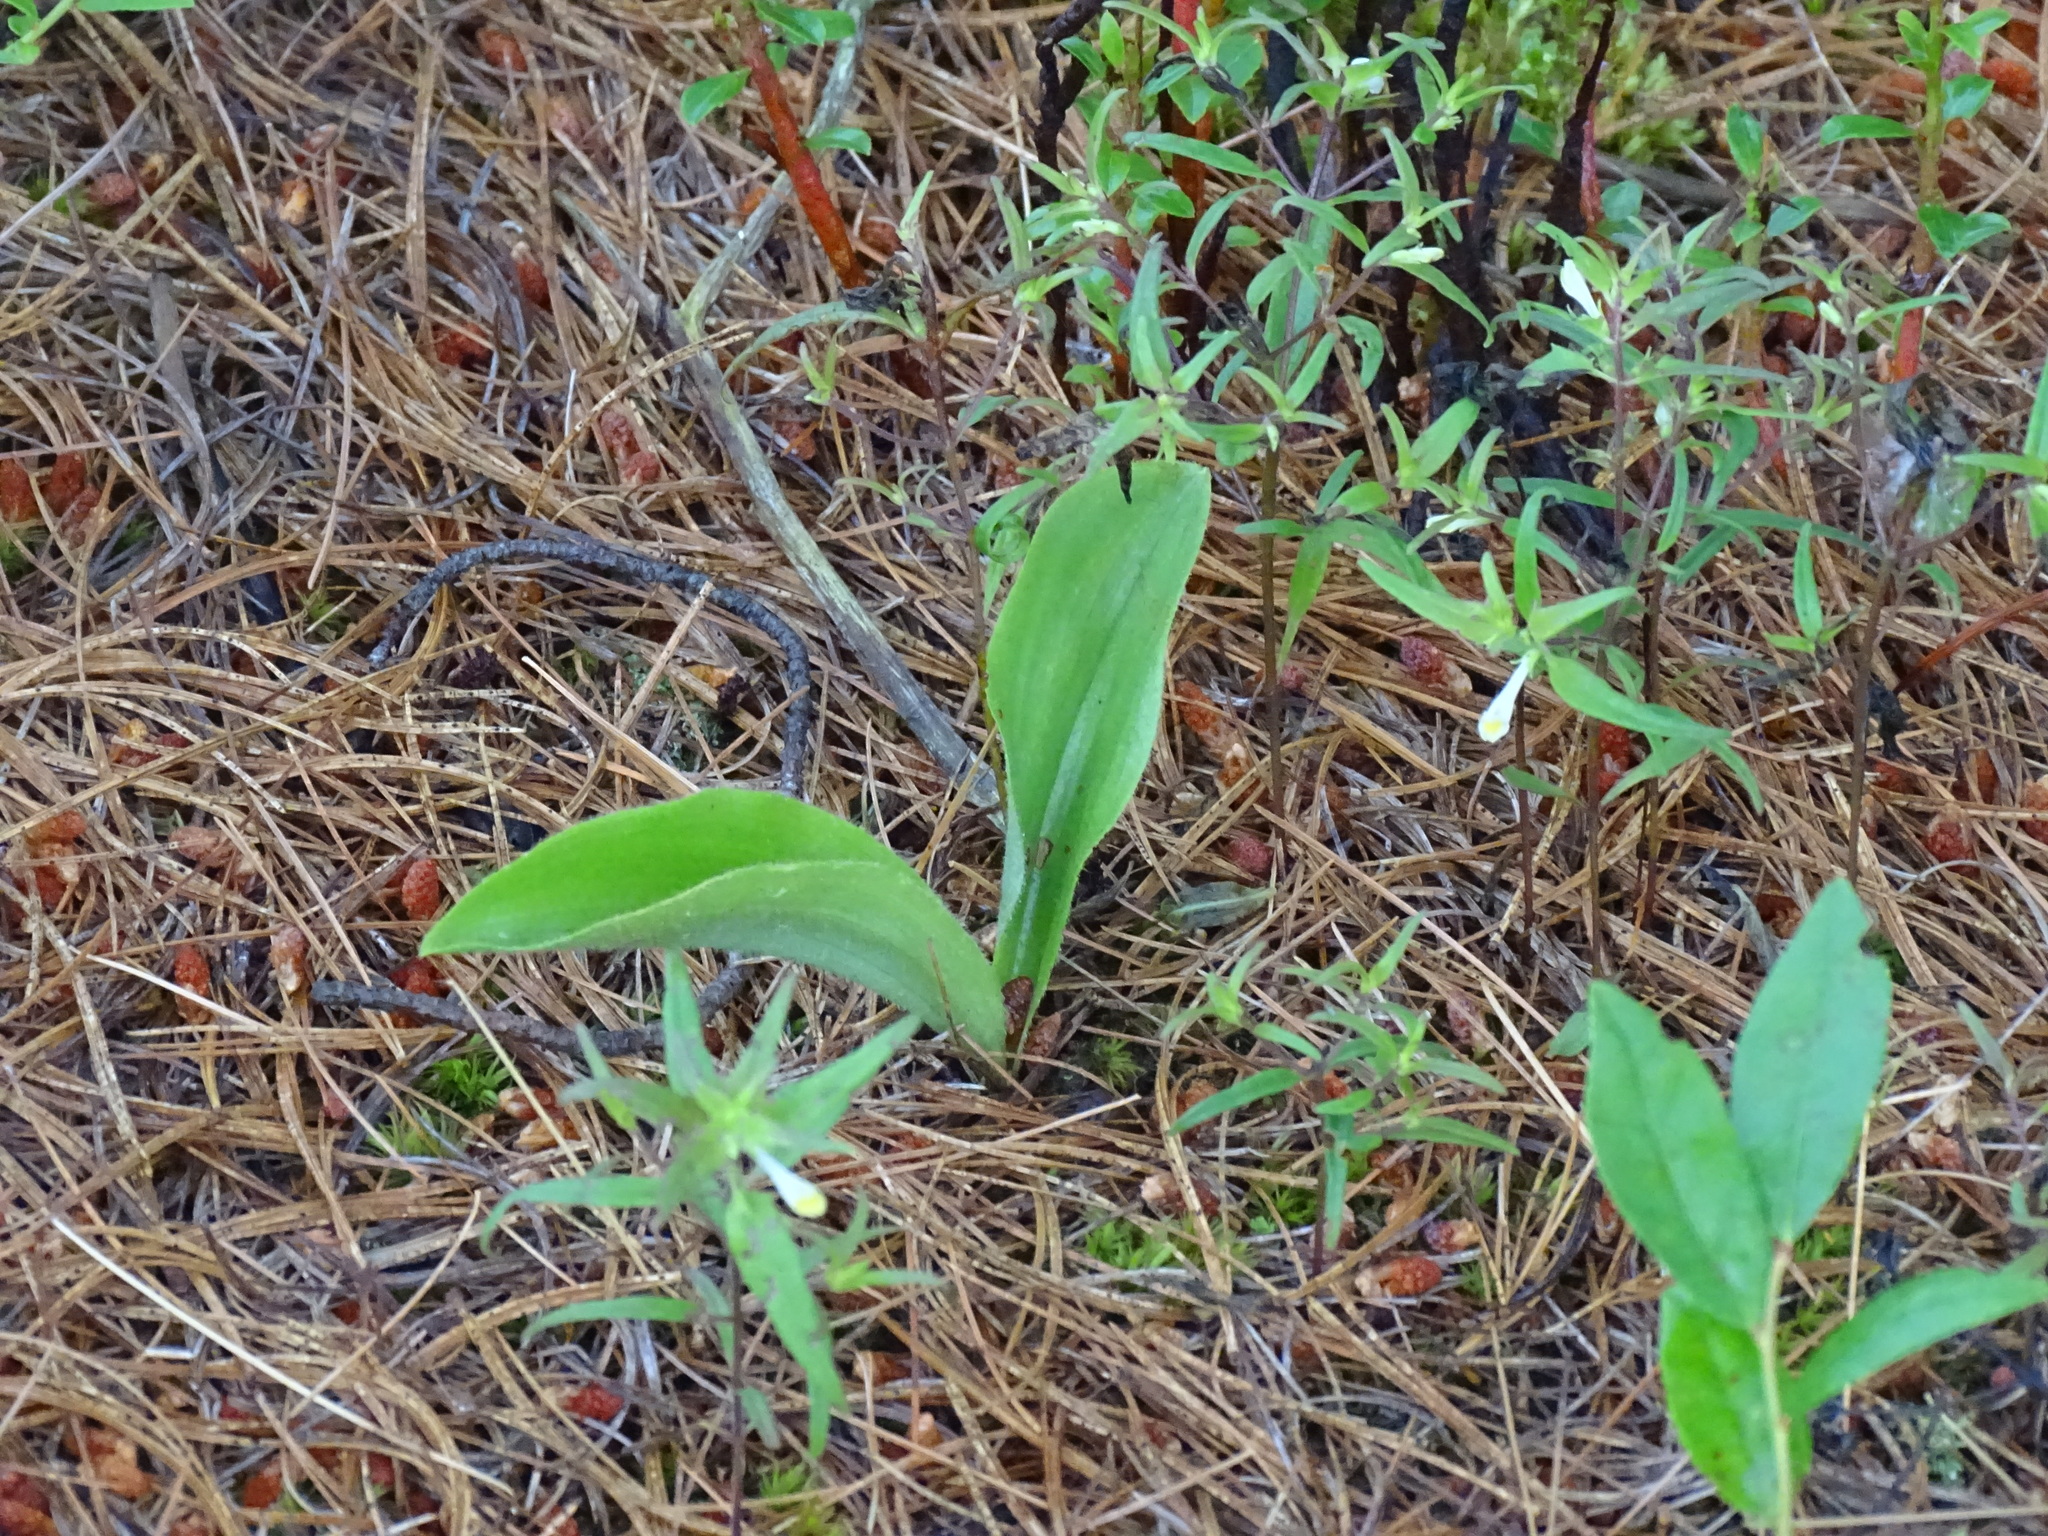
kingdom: Plantae
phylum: Tracheophyta
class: Liliopsida
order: Asparagales
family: Orchidaceae
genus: Cypripedium
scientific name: Cypripedium acaule
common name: Pink lady's-slipper
